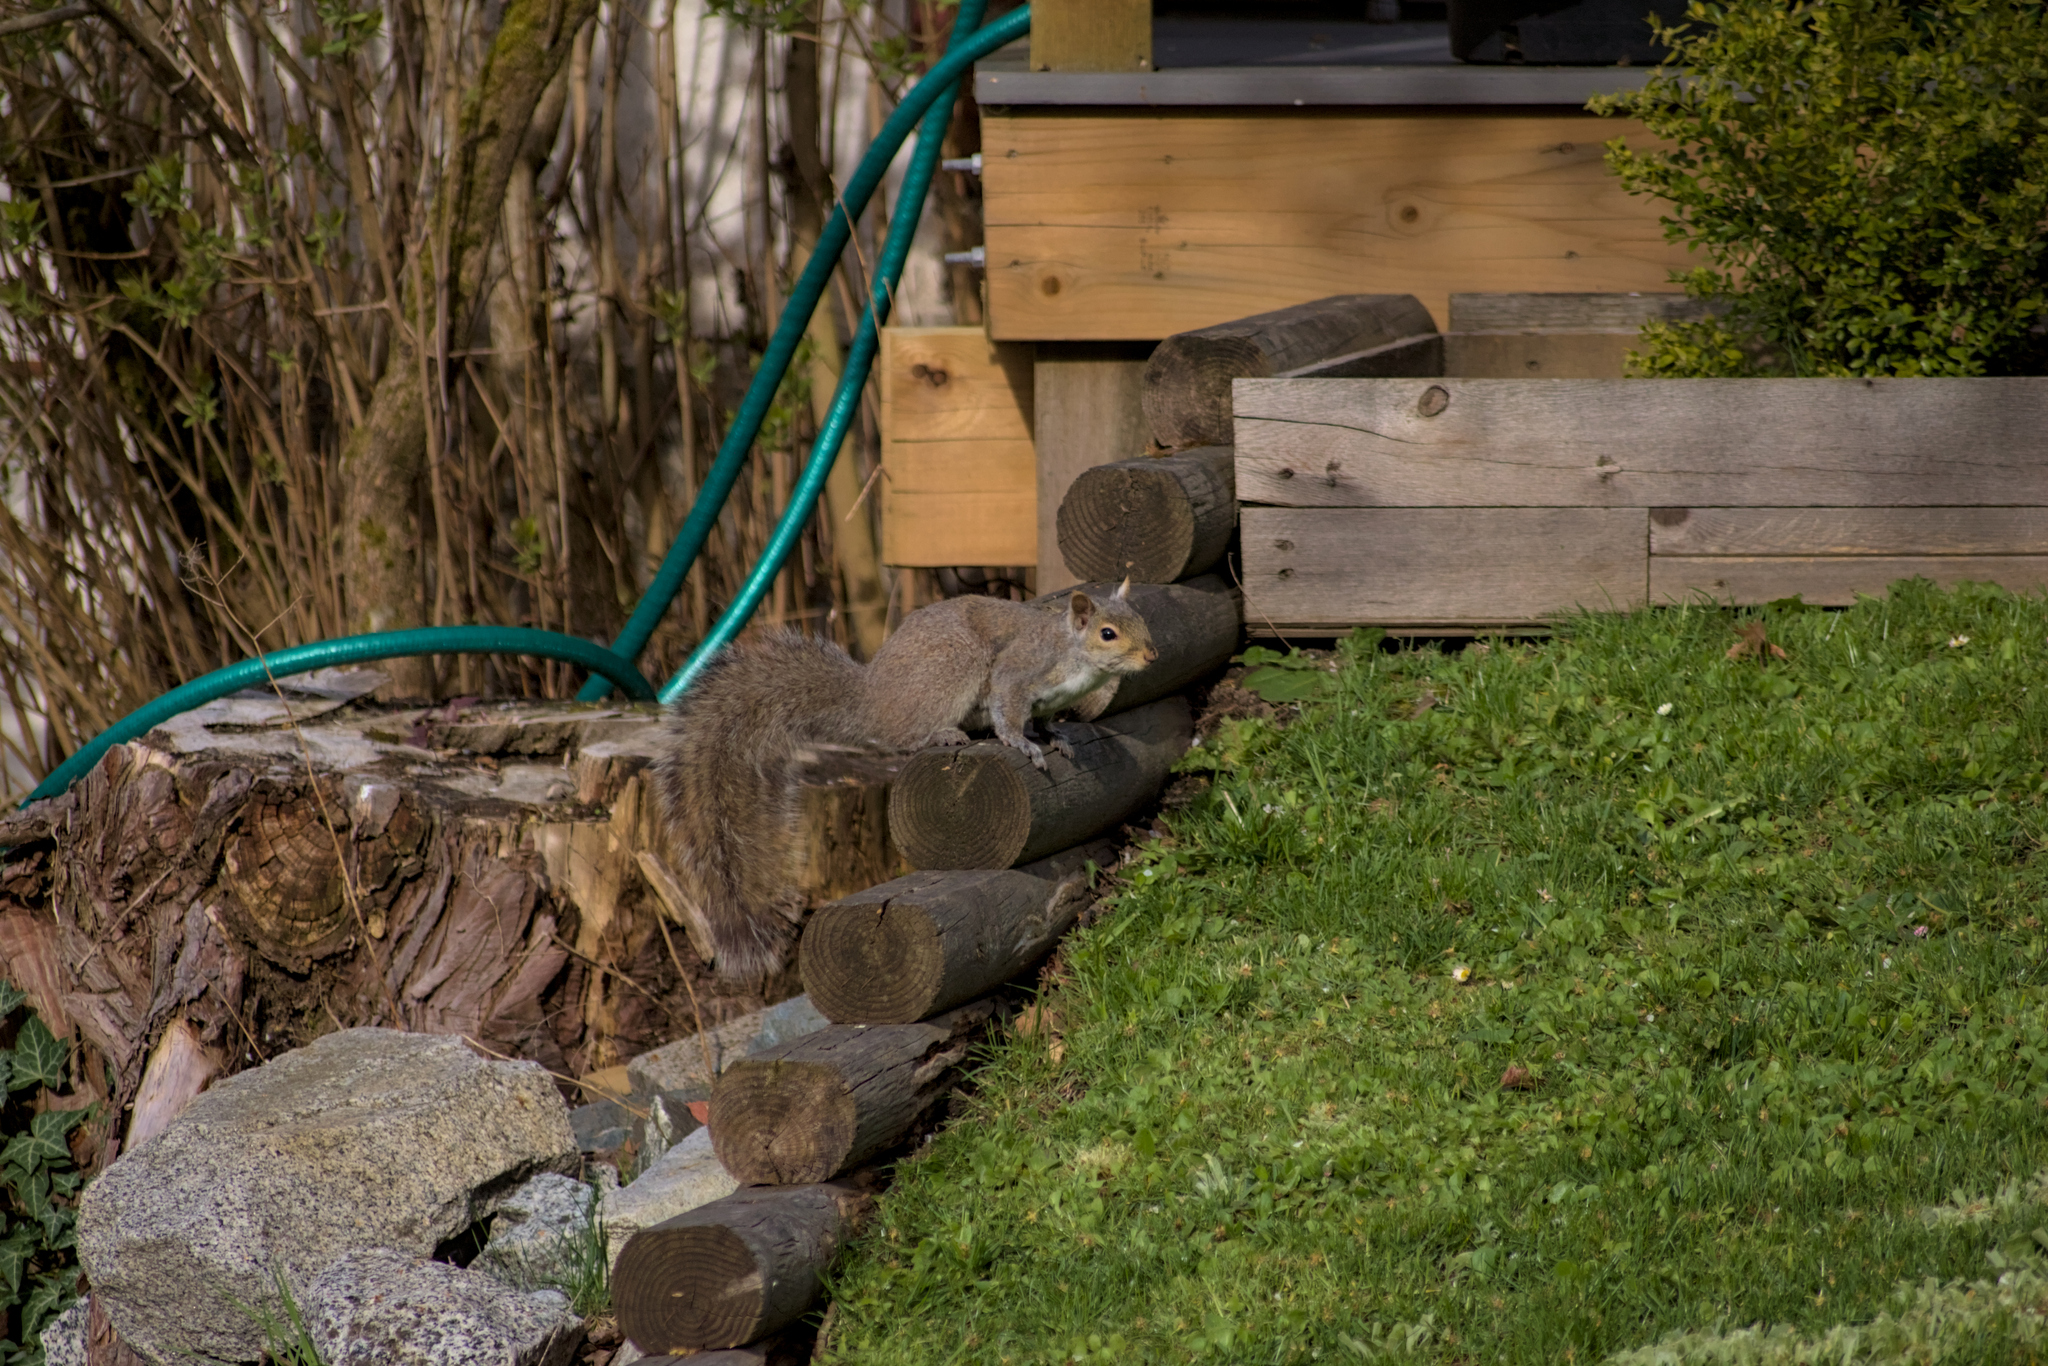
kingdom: Animalia
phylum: Chordata
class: Mammalia
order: Rodentia
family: Sciuridae
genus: Sciurus
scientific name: Sciurus carolinensis
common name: Eastern gray squirrel
